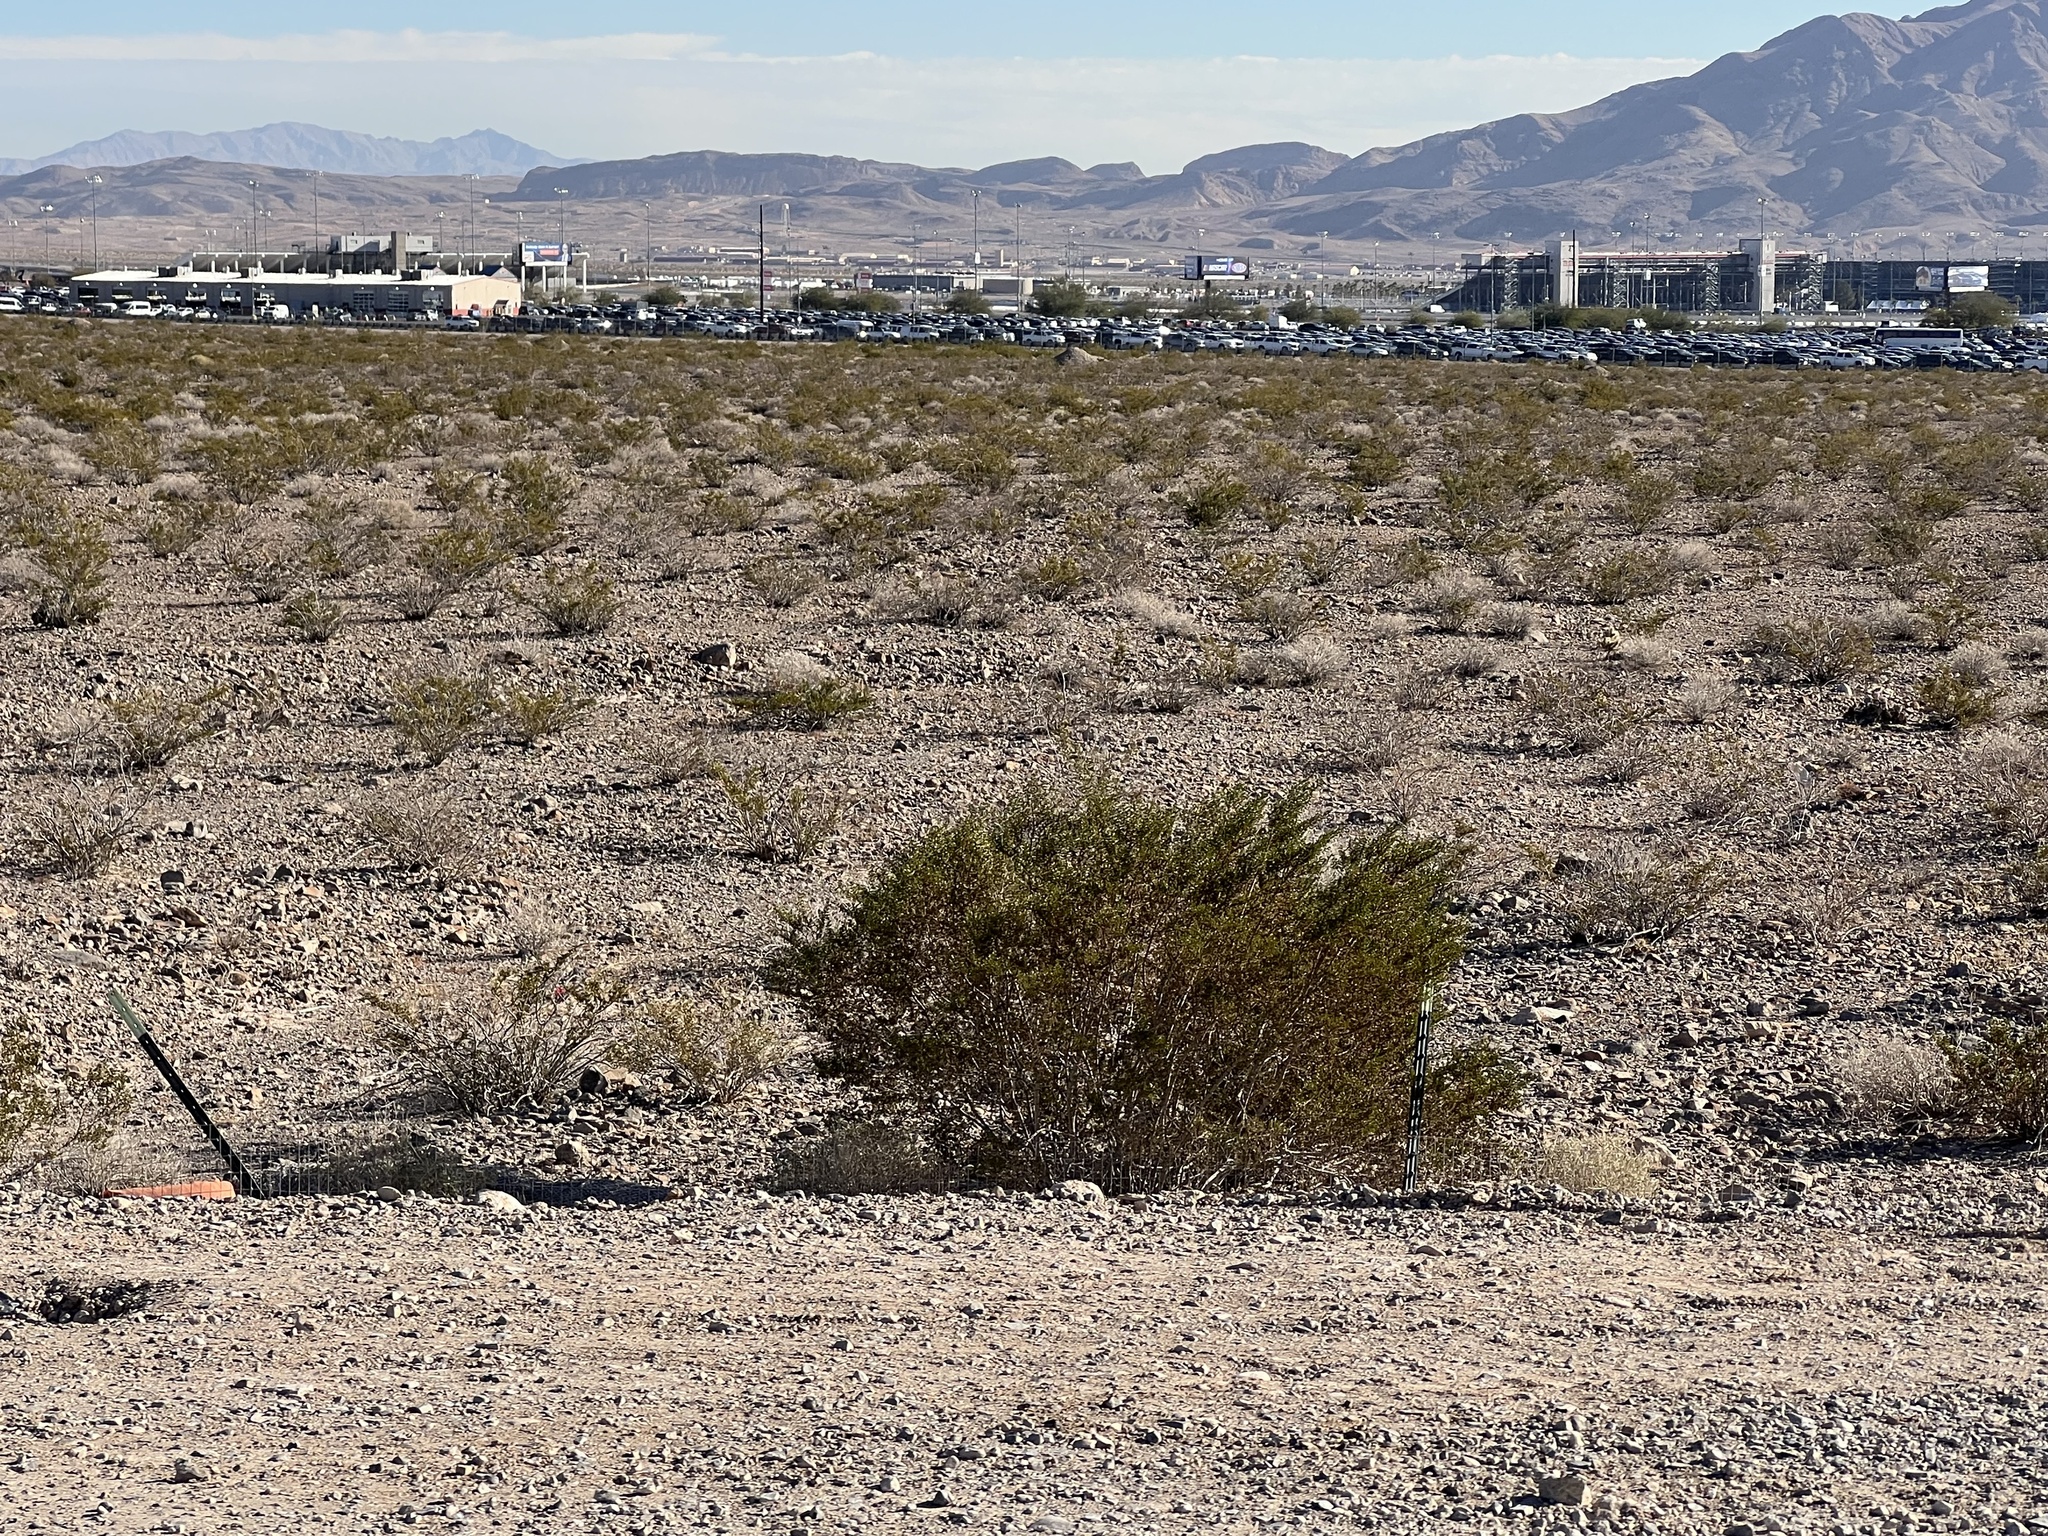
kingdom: Plantae
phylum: Tracheophyta
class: Magnoliopsida
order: Zygophyllales
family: Zygophyllaceae
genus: Larrea
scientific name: Larrea tridentata
